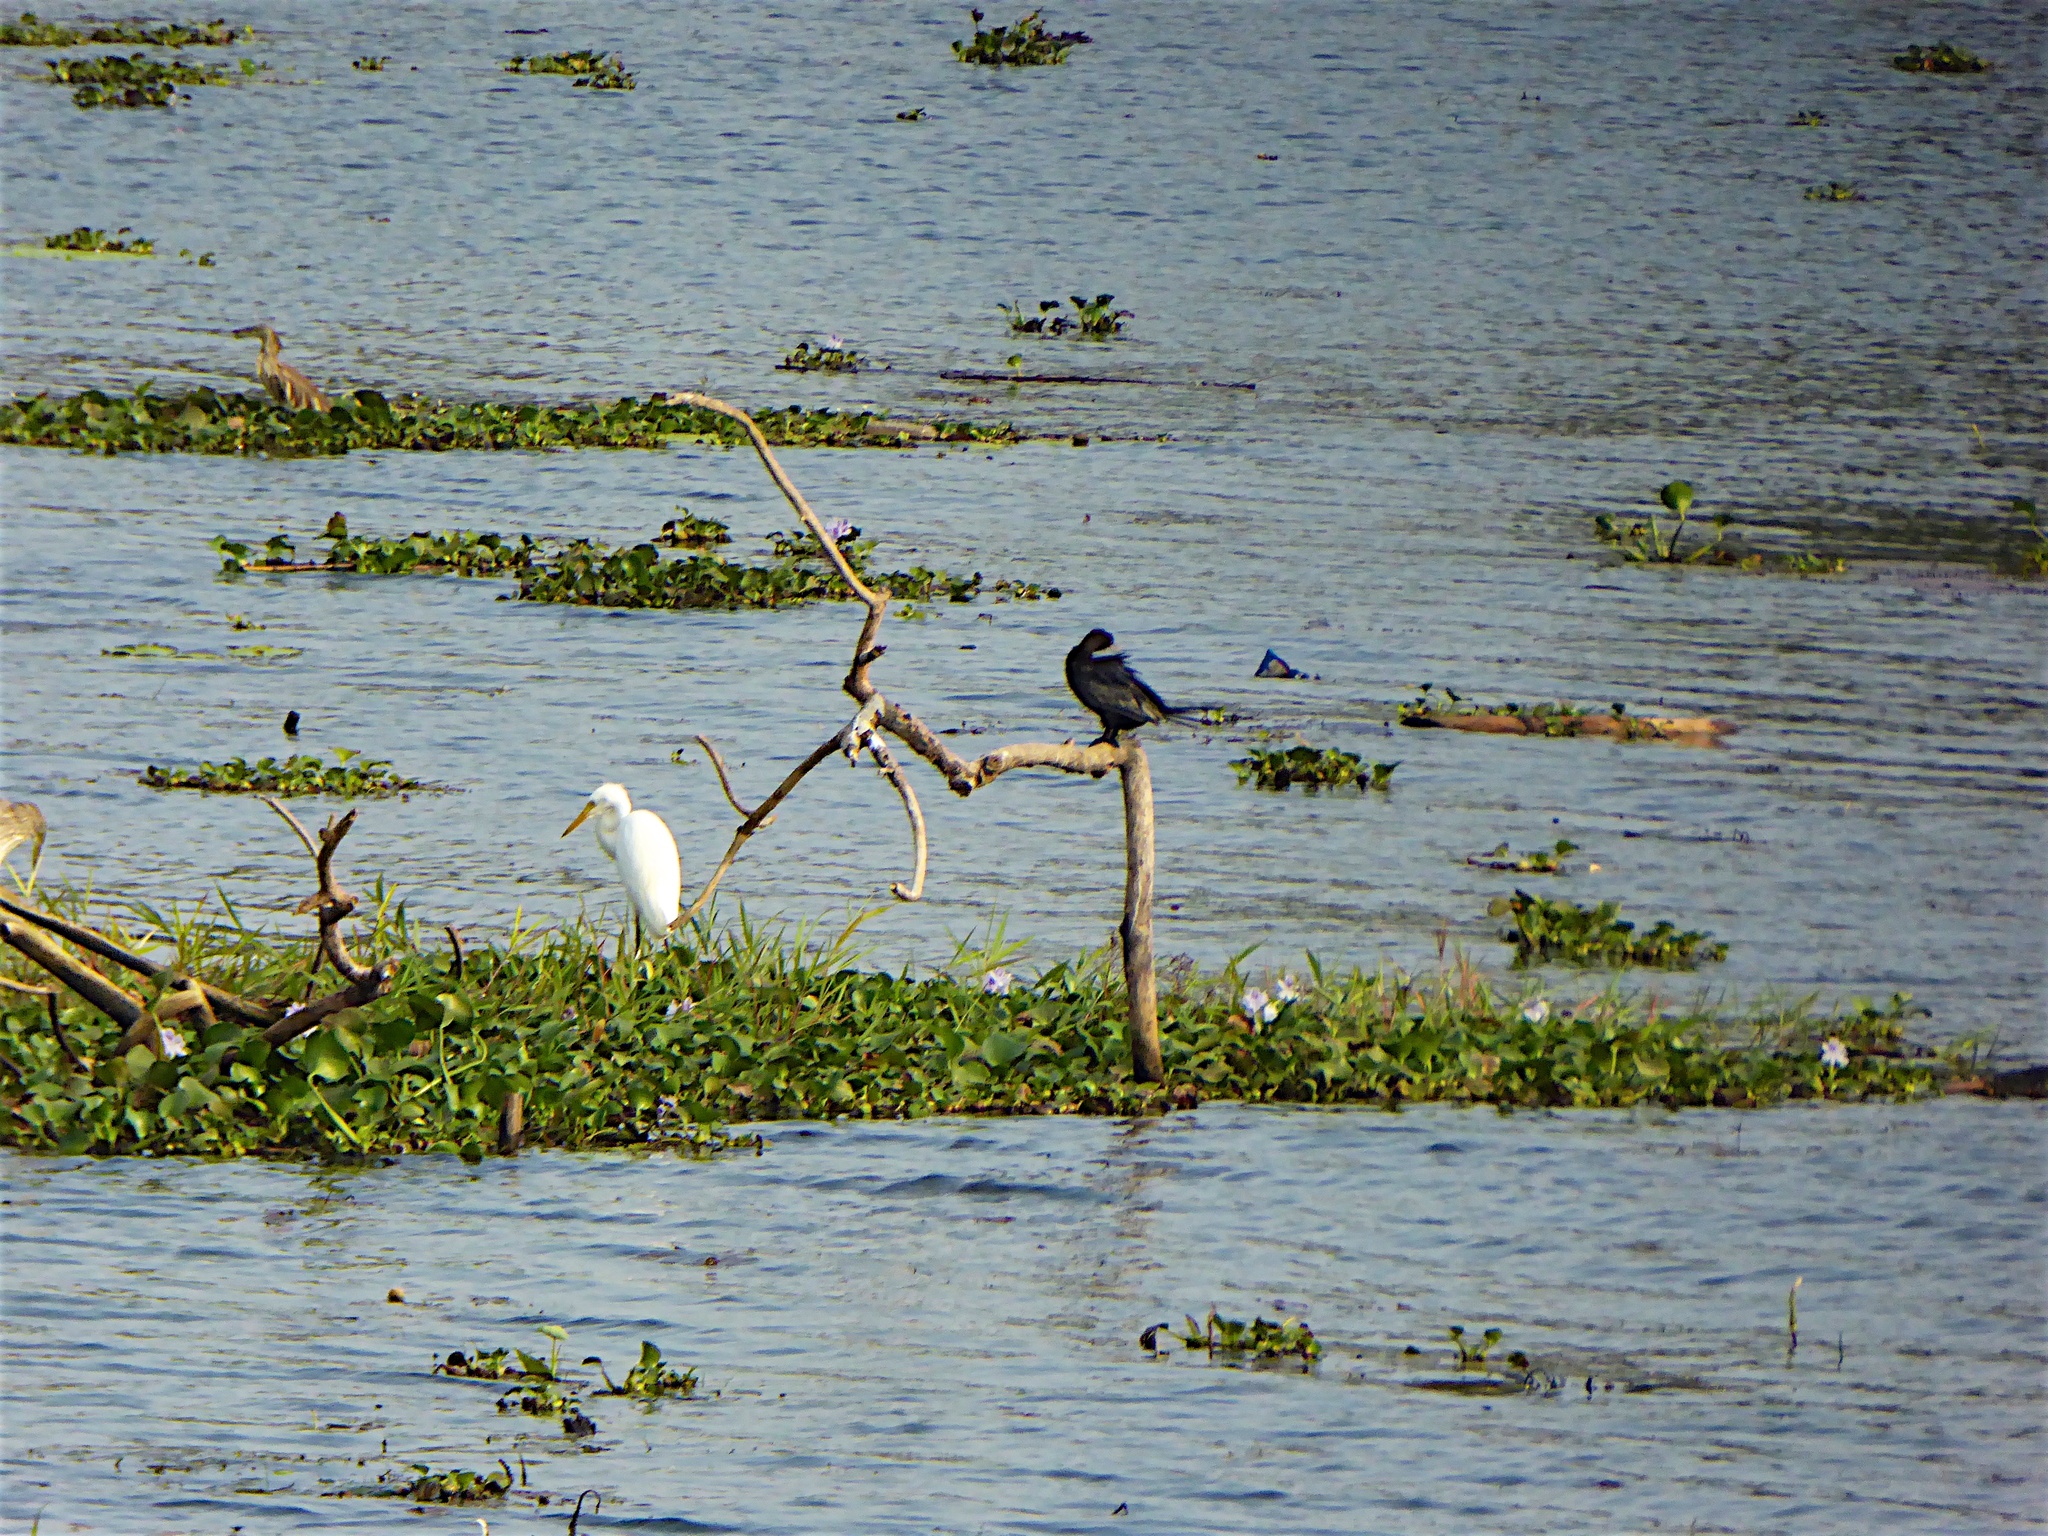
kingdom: Animalia
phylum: Chordata
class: Aves
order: Suliformes
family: Phalacrocoracidae
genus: Microcarbo
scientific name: Microcarbo niger
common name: Little cormorant
